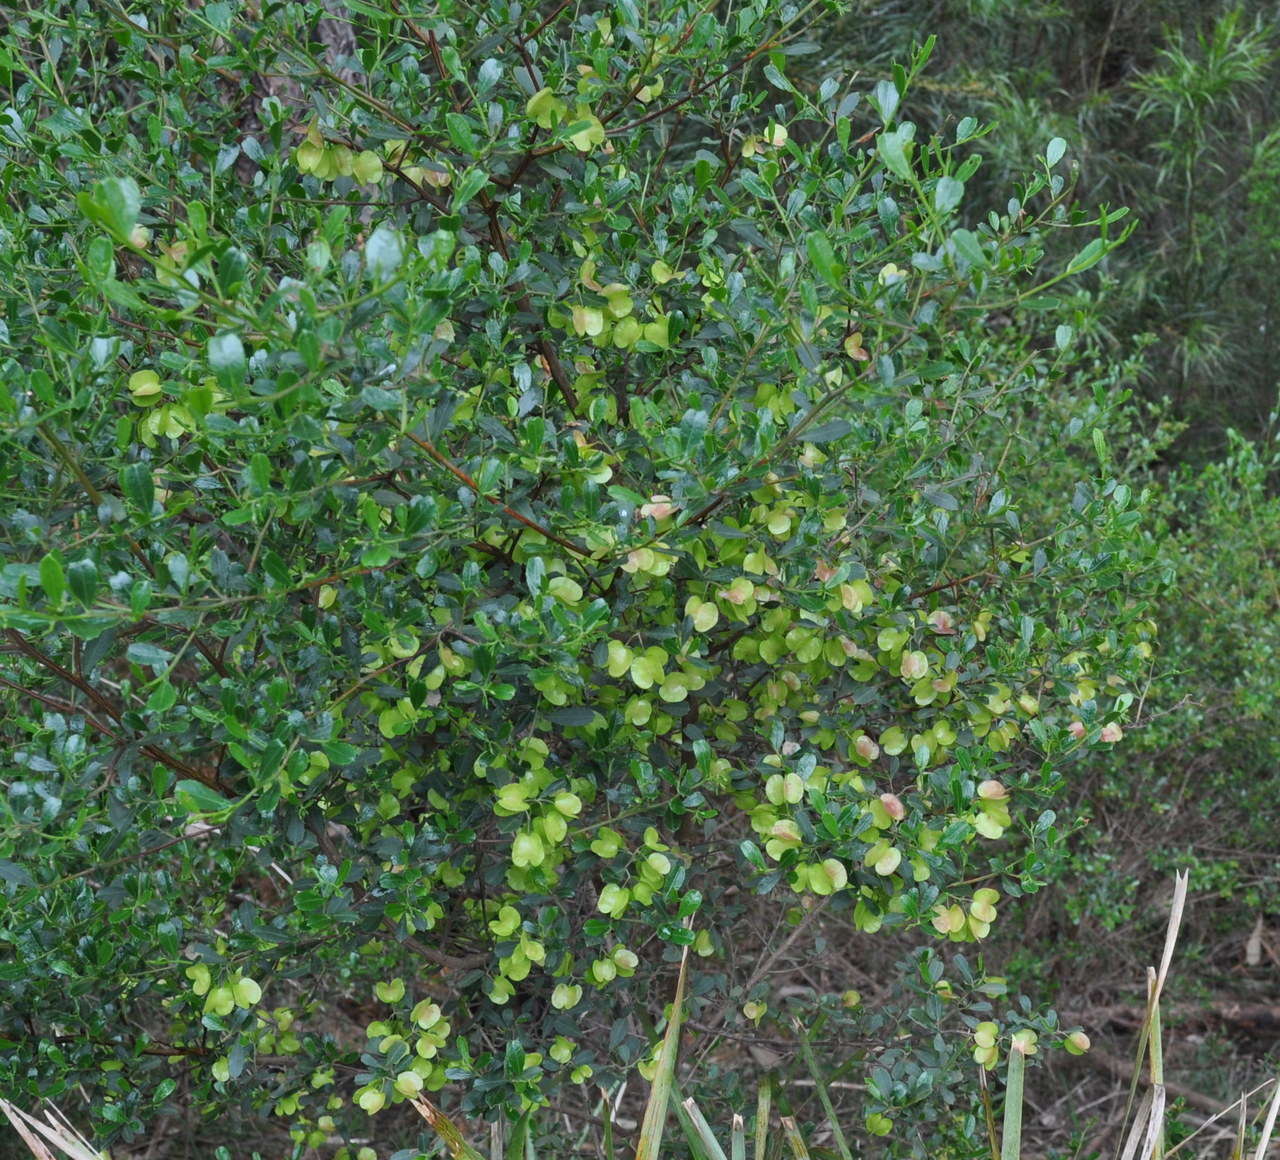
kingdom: Plantae
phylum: Tracheophyta
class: Magnoliopsida
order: Sapindales
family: Sapindaceae
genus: Dodonaea
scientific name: Dodonaea viscosa
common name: Hopbush
